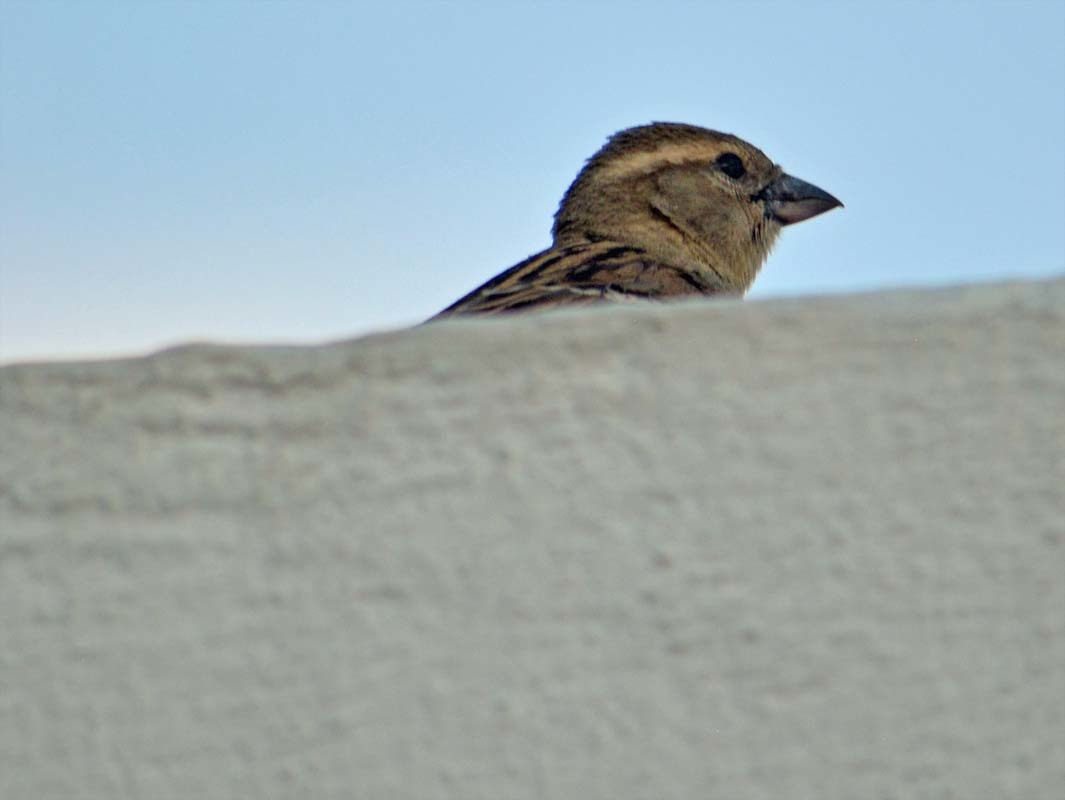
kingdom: Animalia
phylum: Chordata
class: Aves
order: Passeriformes
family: Passeridae
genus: Passer
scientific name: Passer domesticus
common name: House sparrow
